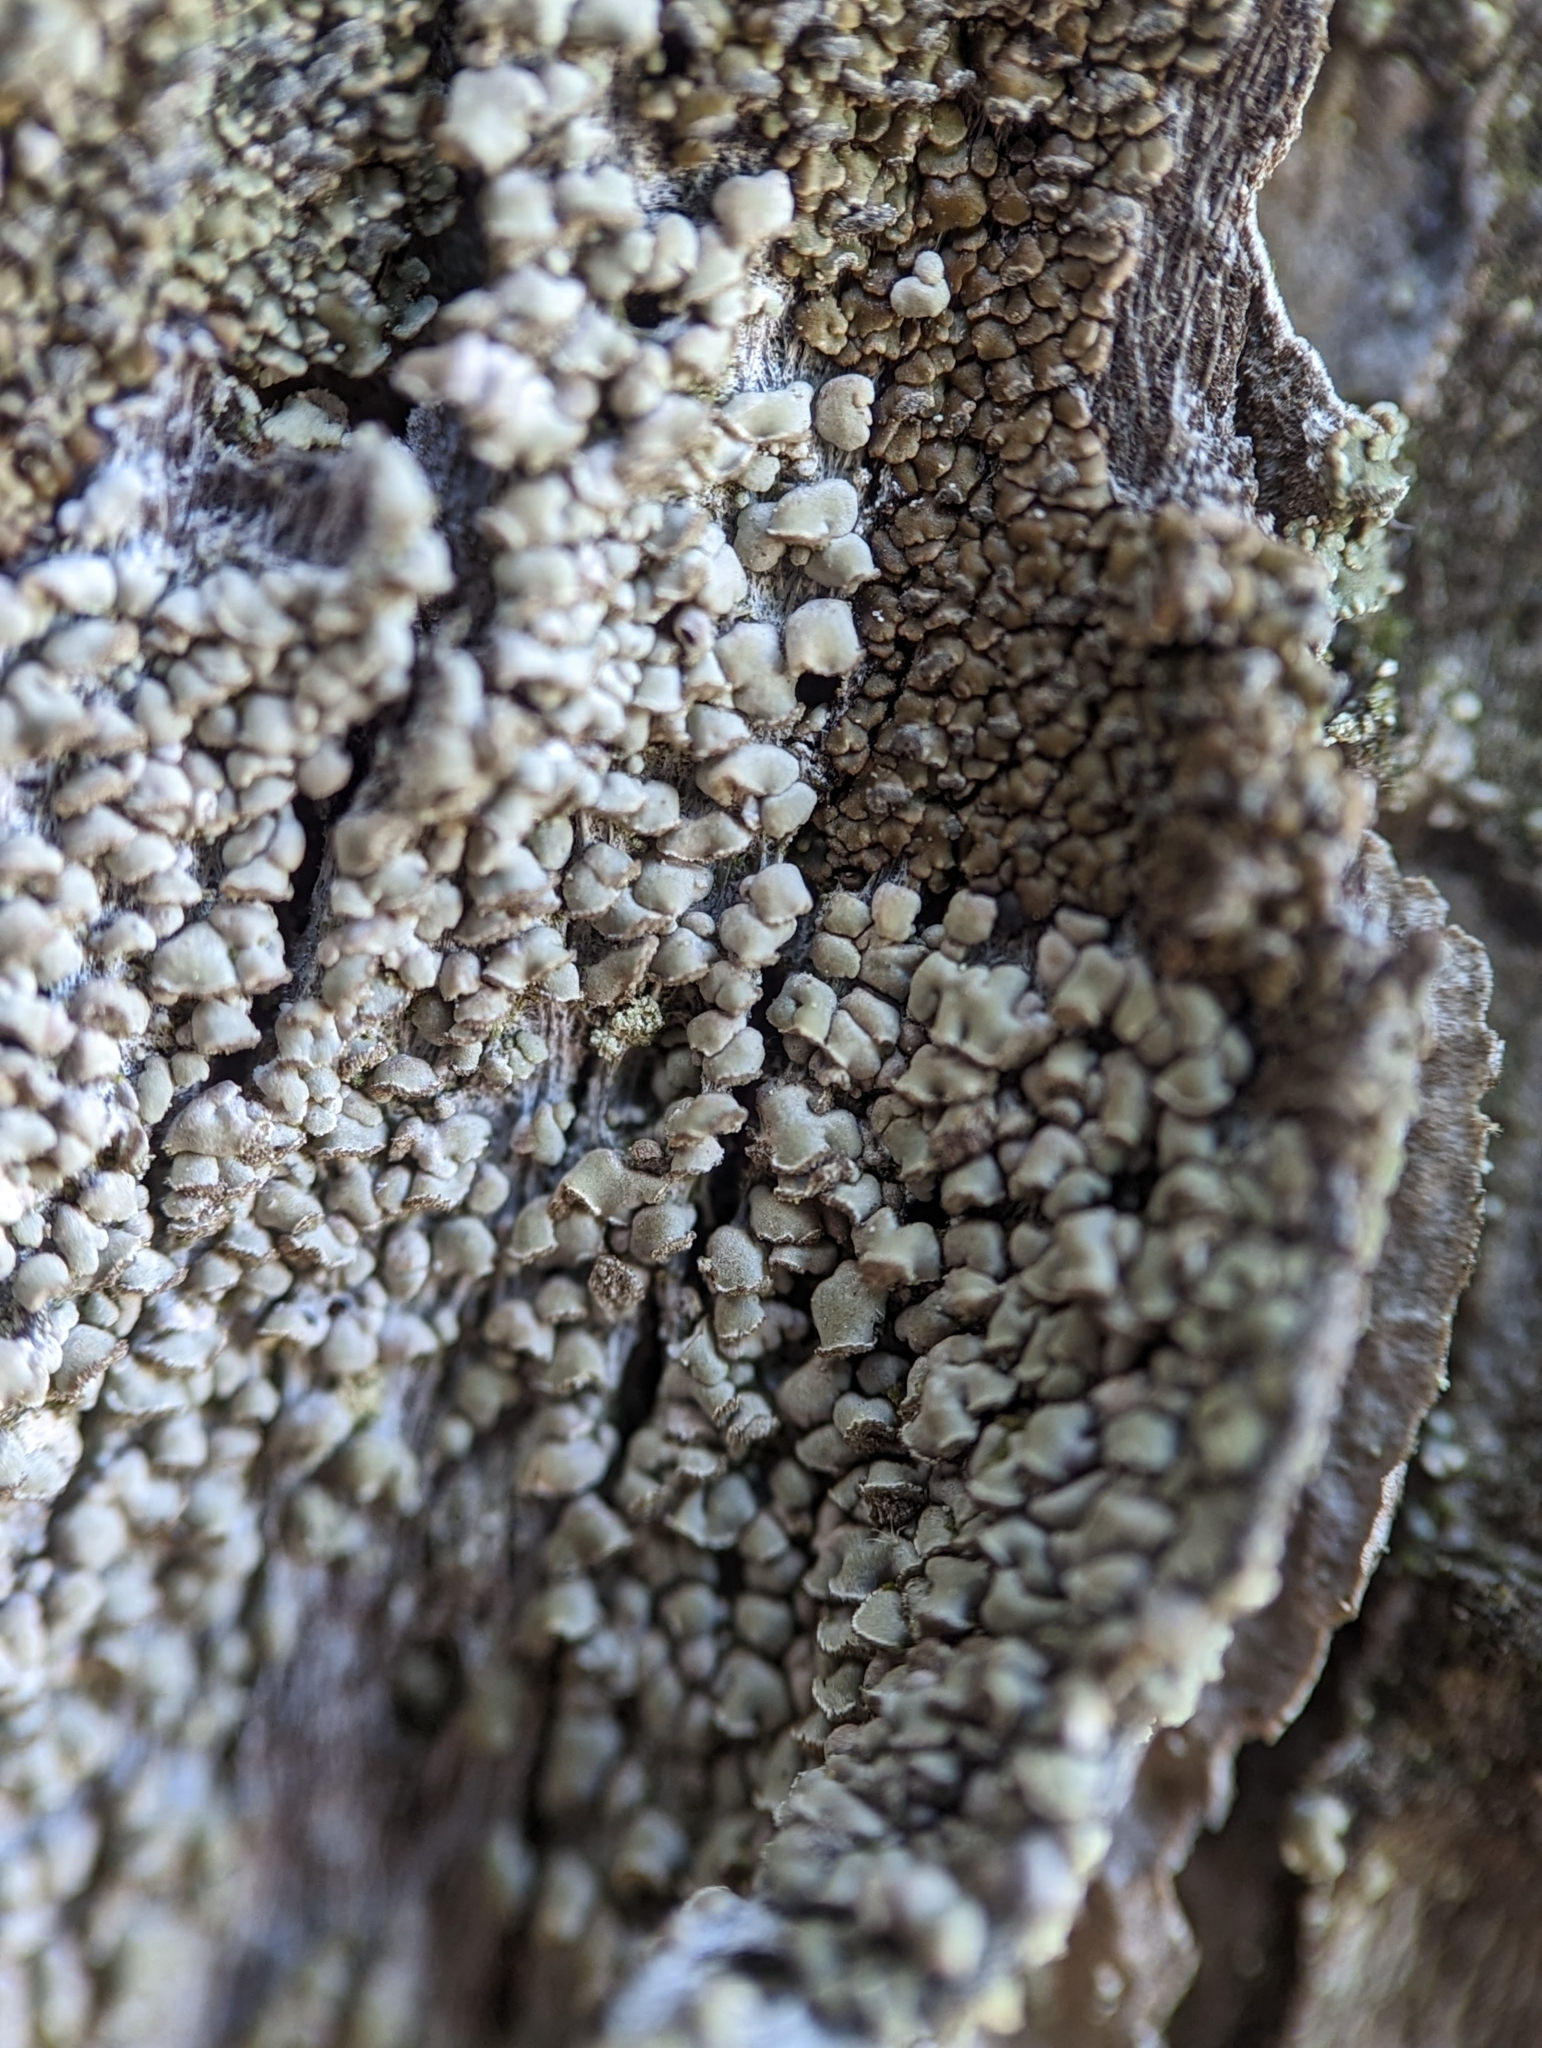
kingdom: Fungi
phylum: Ascomycota
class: Lecanoromycetes
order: Umbilicariales
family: Ophioparmaceae
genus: Hypocenomyce
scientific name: Hypocenomyce scalaris
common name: Common clam lichen
